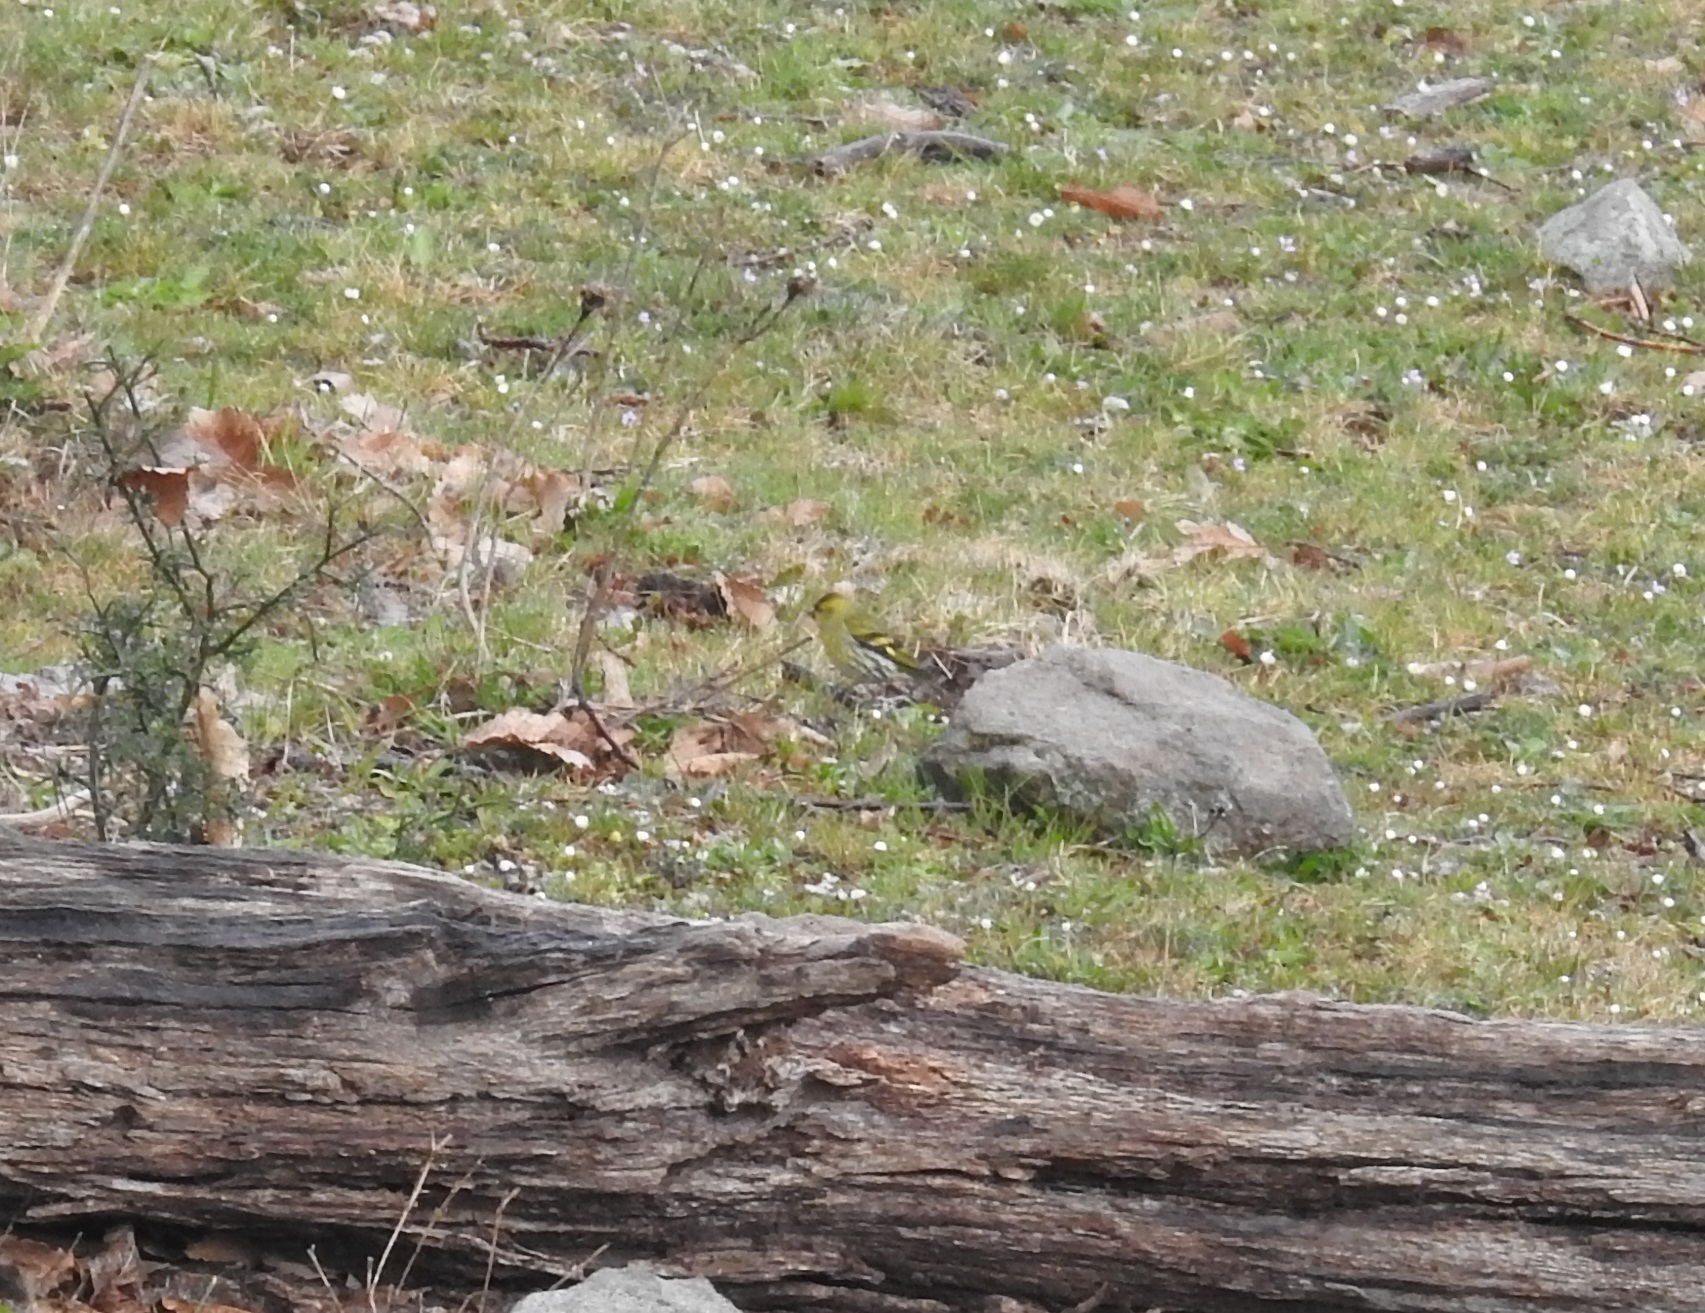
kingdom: Animalia
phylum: Chordata
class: Aves
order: Passeriformes
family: Fringillidae
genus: Spinus
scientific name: Spinus spinus
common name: Eurasian siskin
